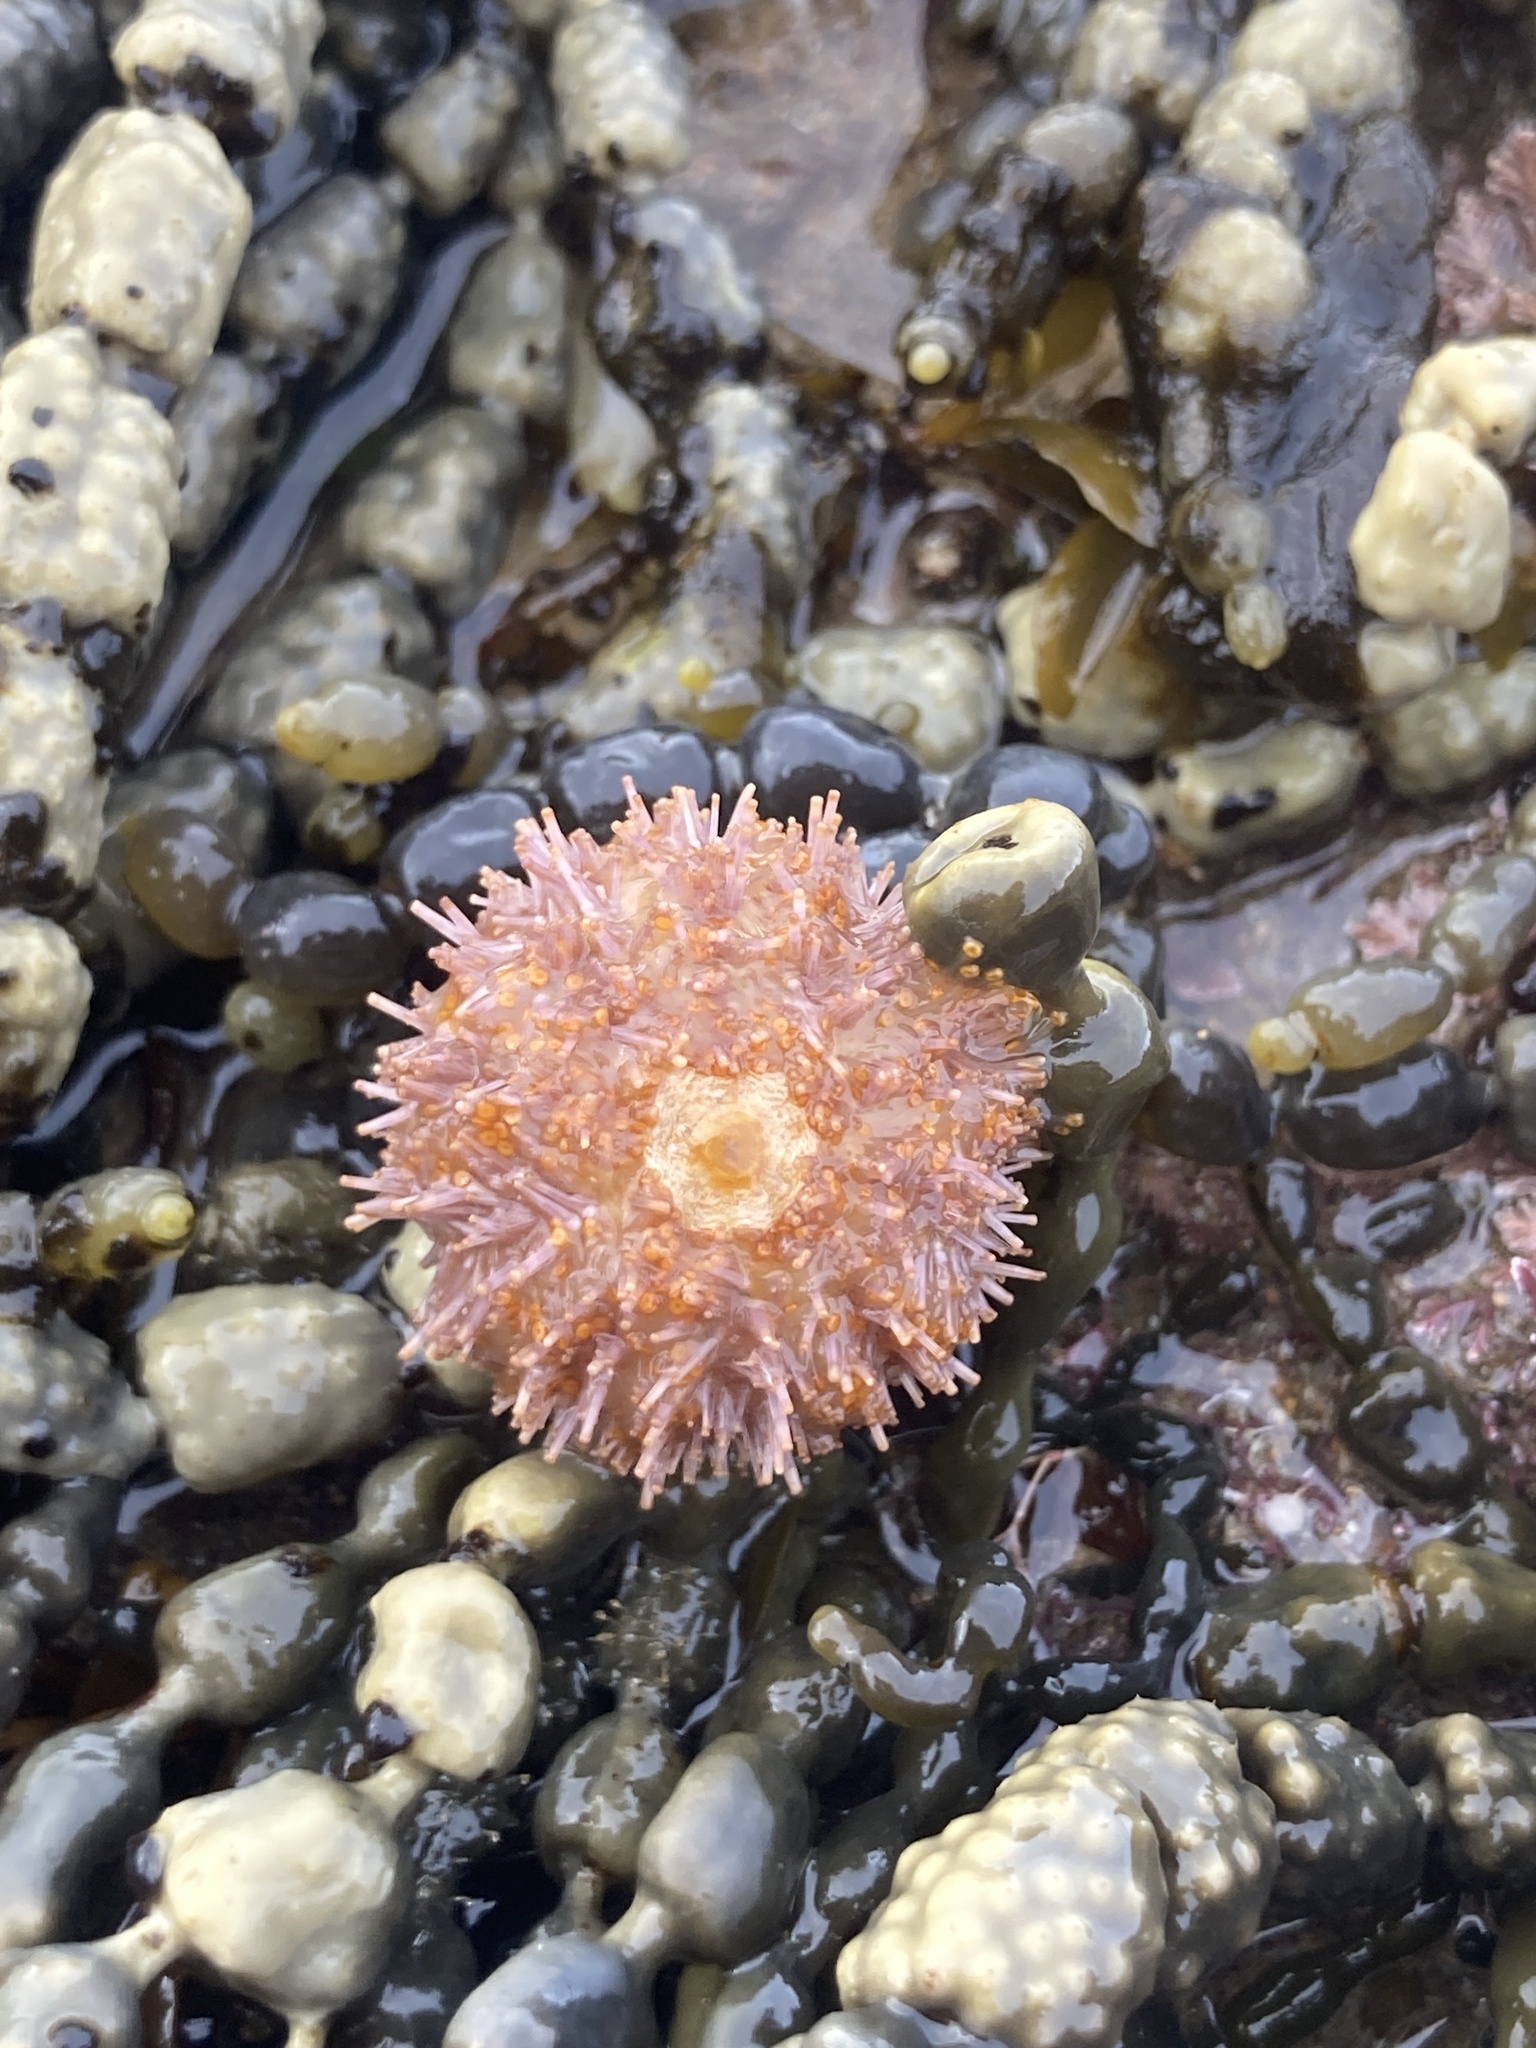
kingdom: Animalia
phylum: Echinodermata
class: Echinoidea
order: Camarodonta
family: Temnopleuridae
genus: Holopneustes
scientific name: Holopneustes inflatus
